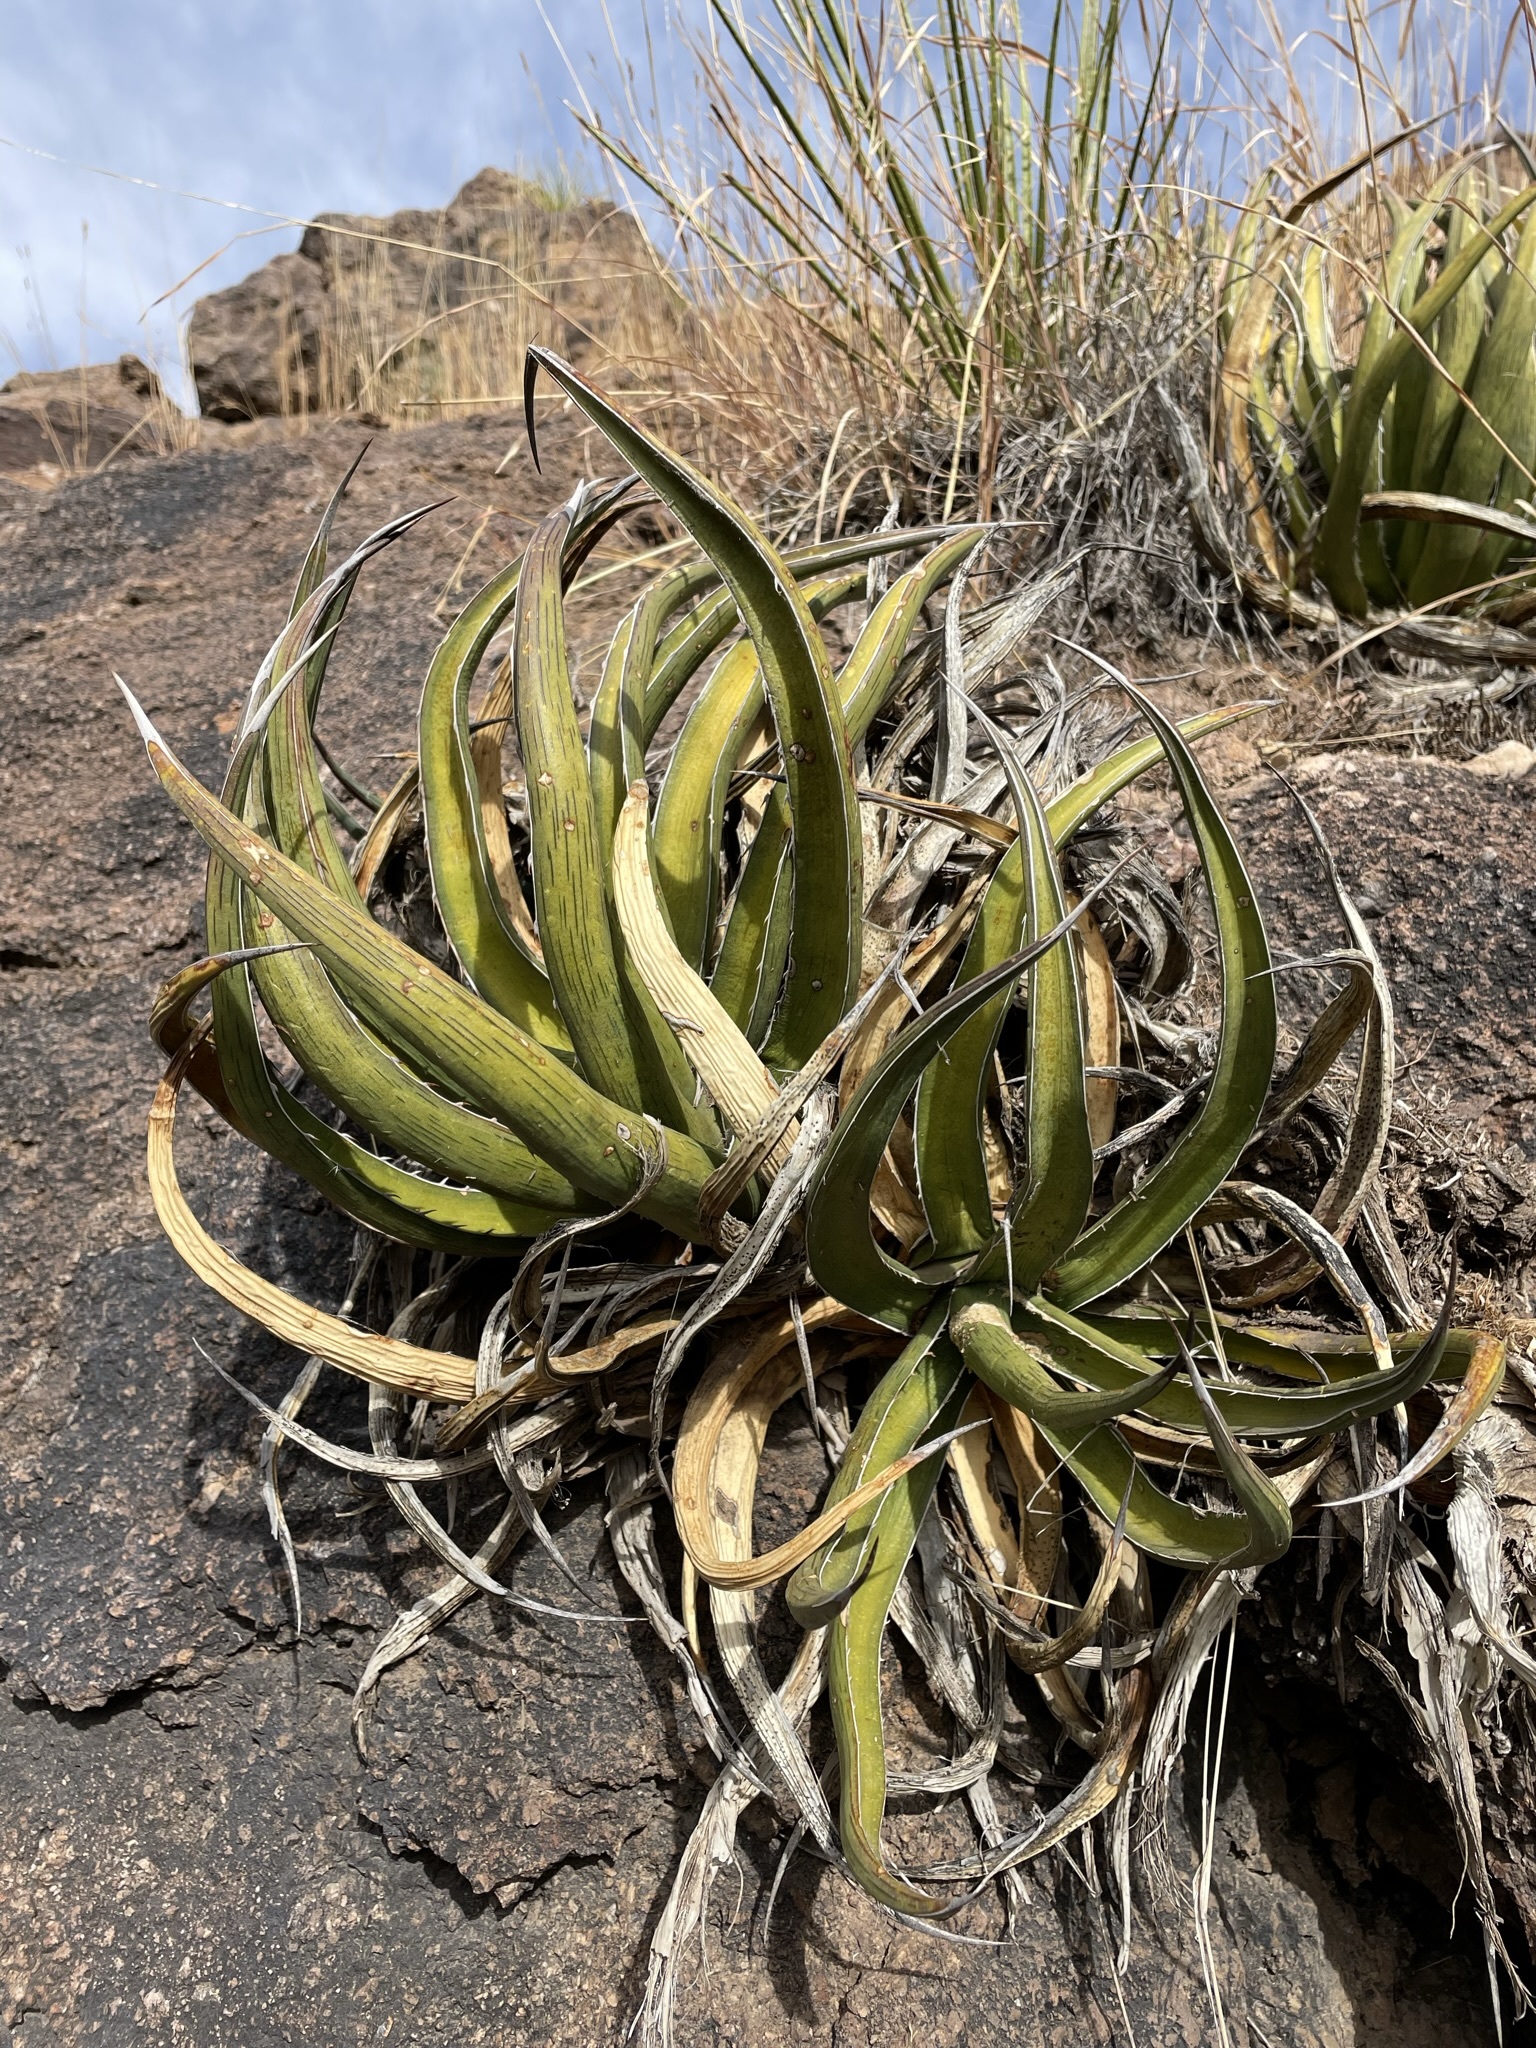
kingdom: Plantae
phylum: Tracheophyta
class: Liliopsida
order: Asparagales
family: Asparagaceae
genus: Agave
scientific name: Agave lechuguilla
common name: Lecheguilla agave
